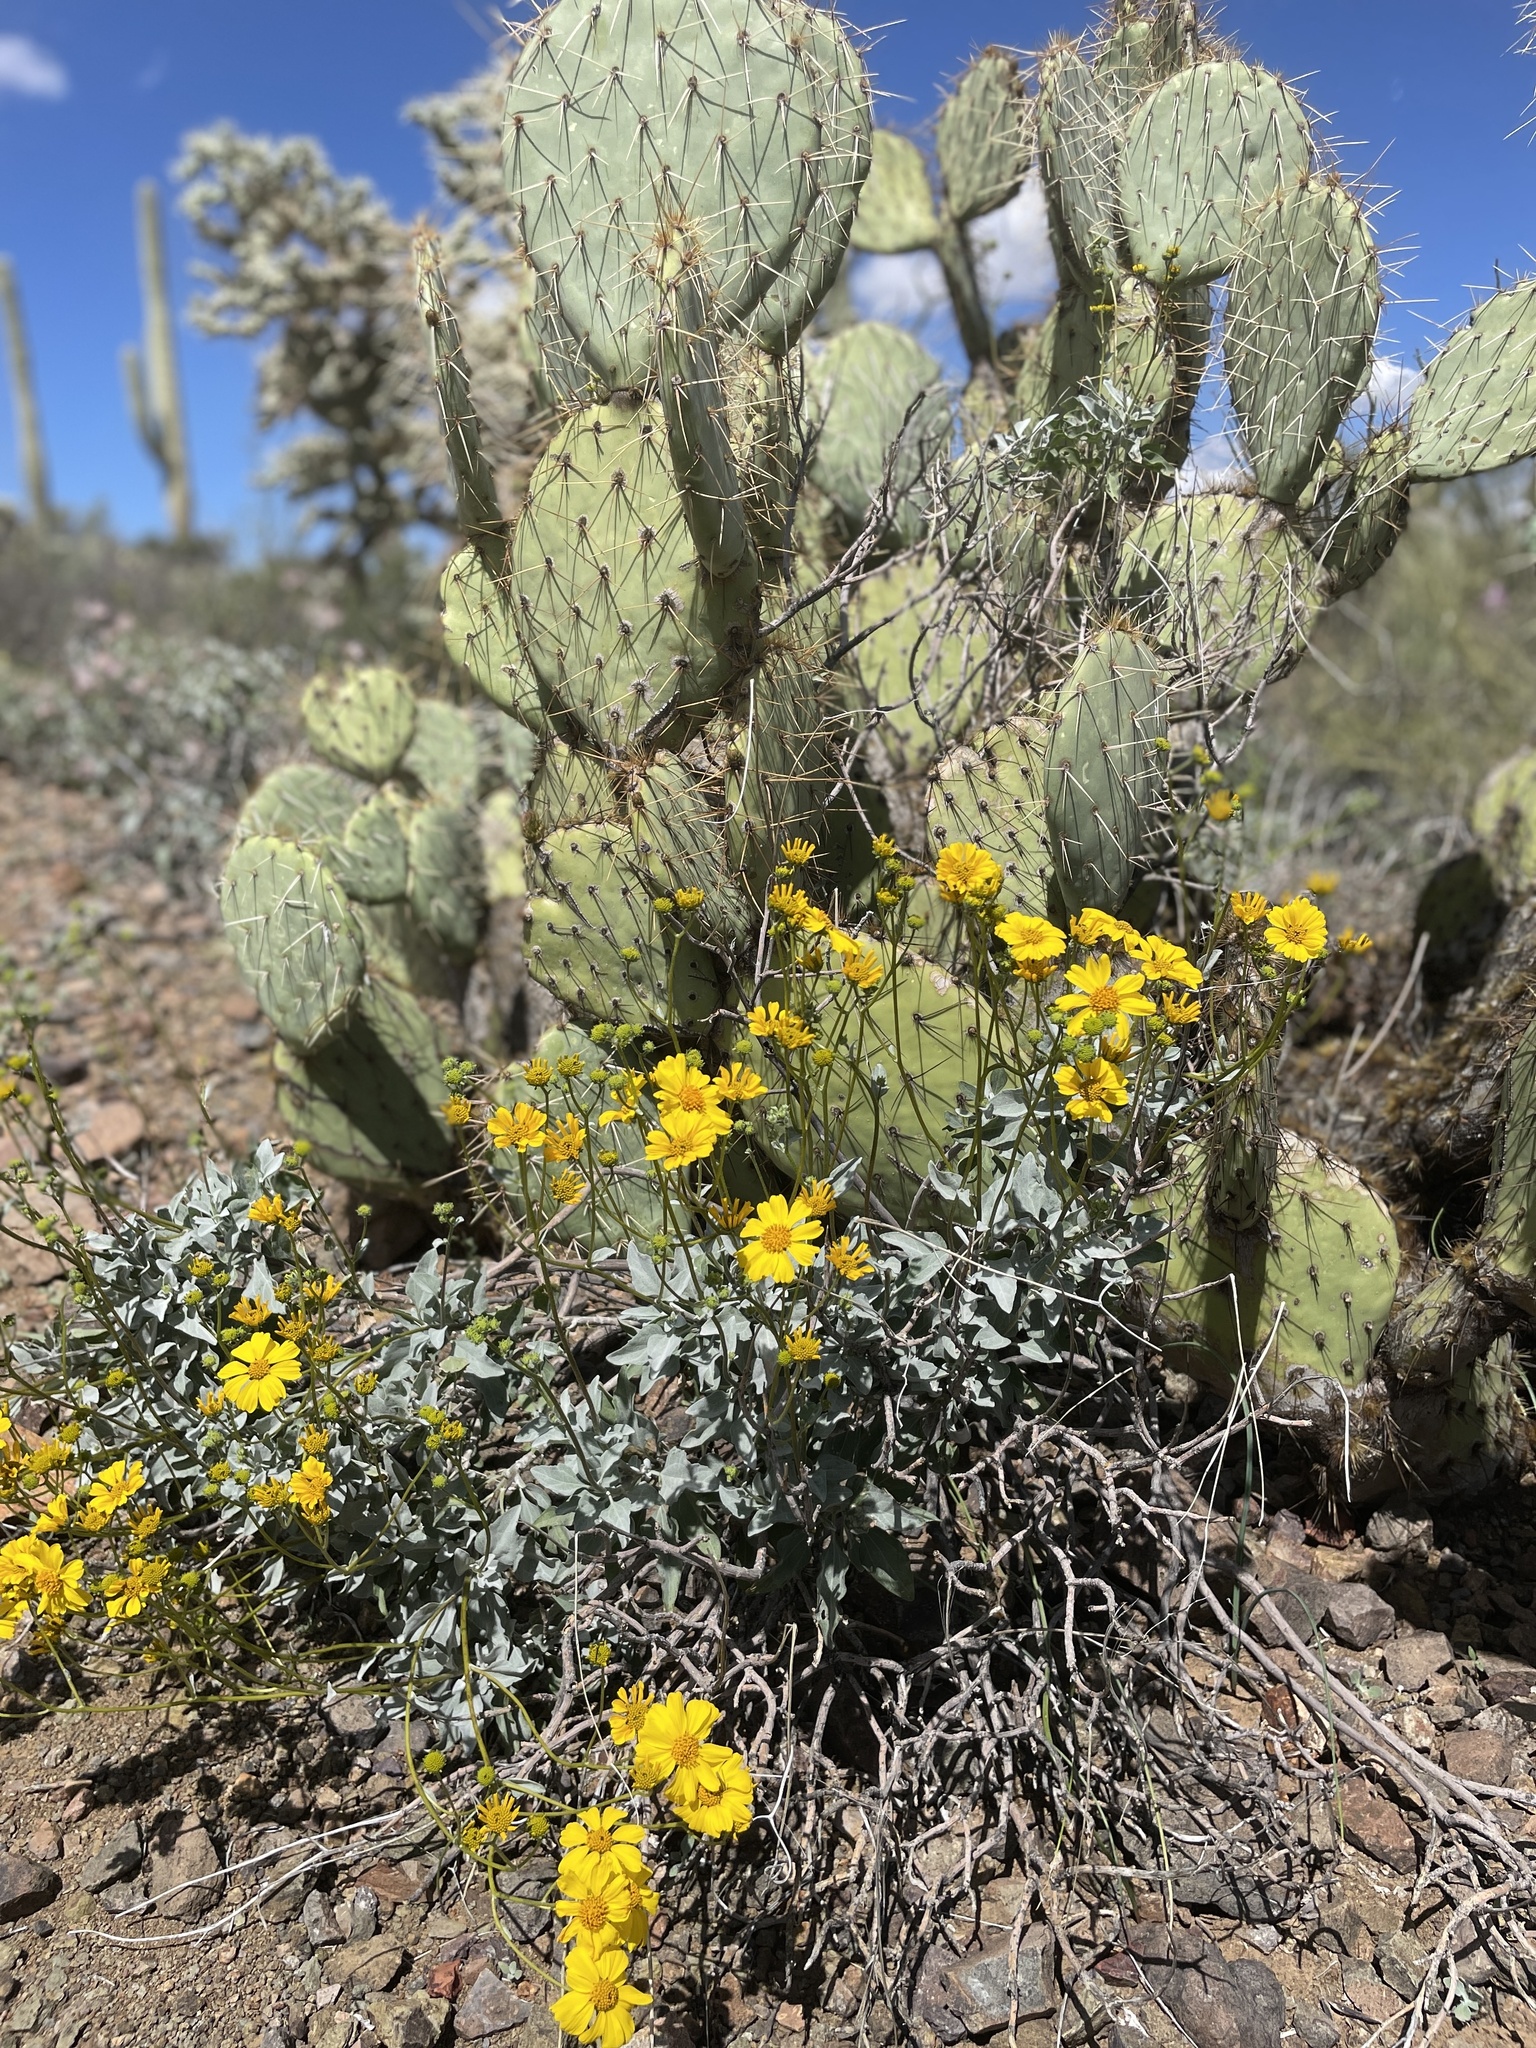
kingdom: Plantae
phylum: Tracheophyta
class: Magnoliopsida
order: Asterales
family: Asteraceae
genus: Encelia
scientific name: Encelia farinosa
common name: Brittlebush
